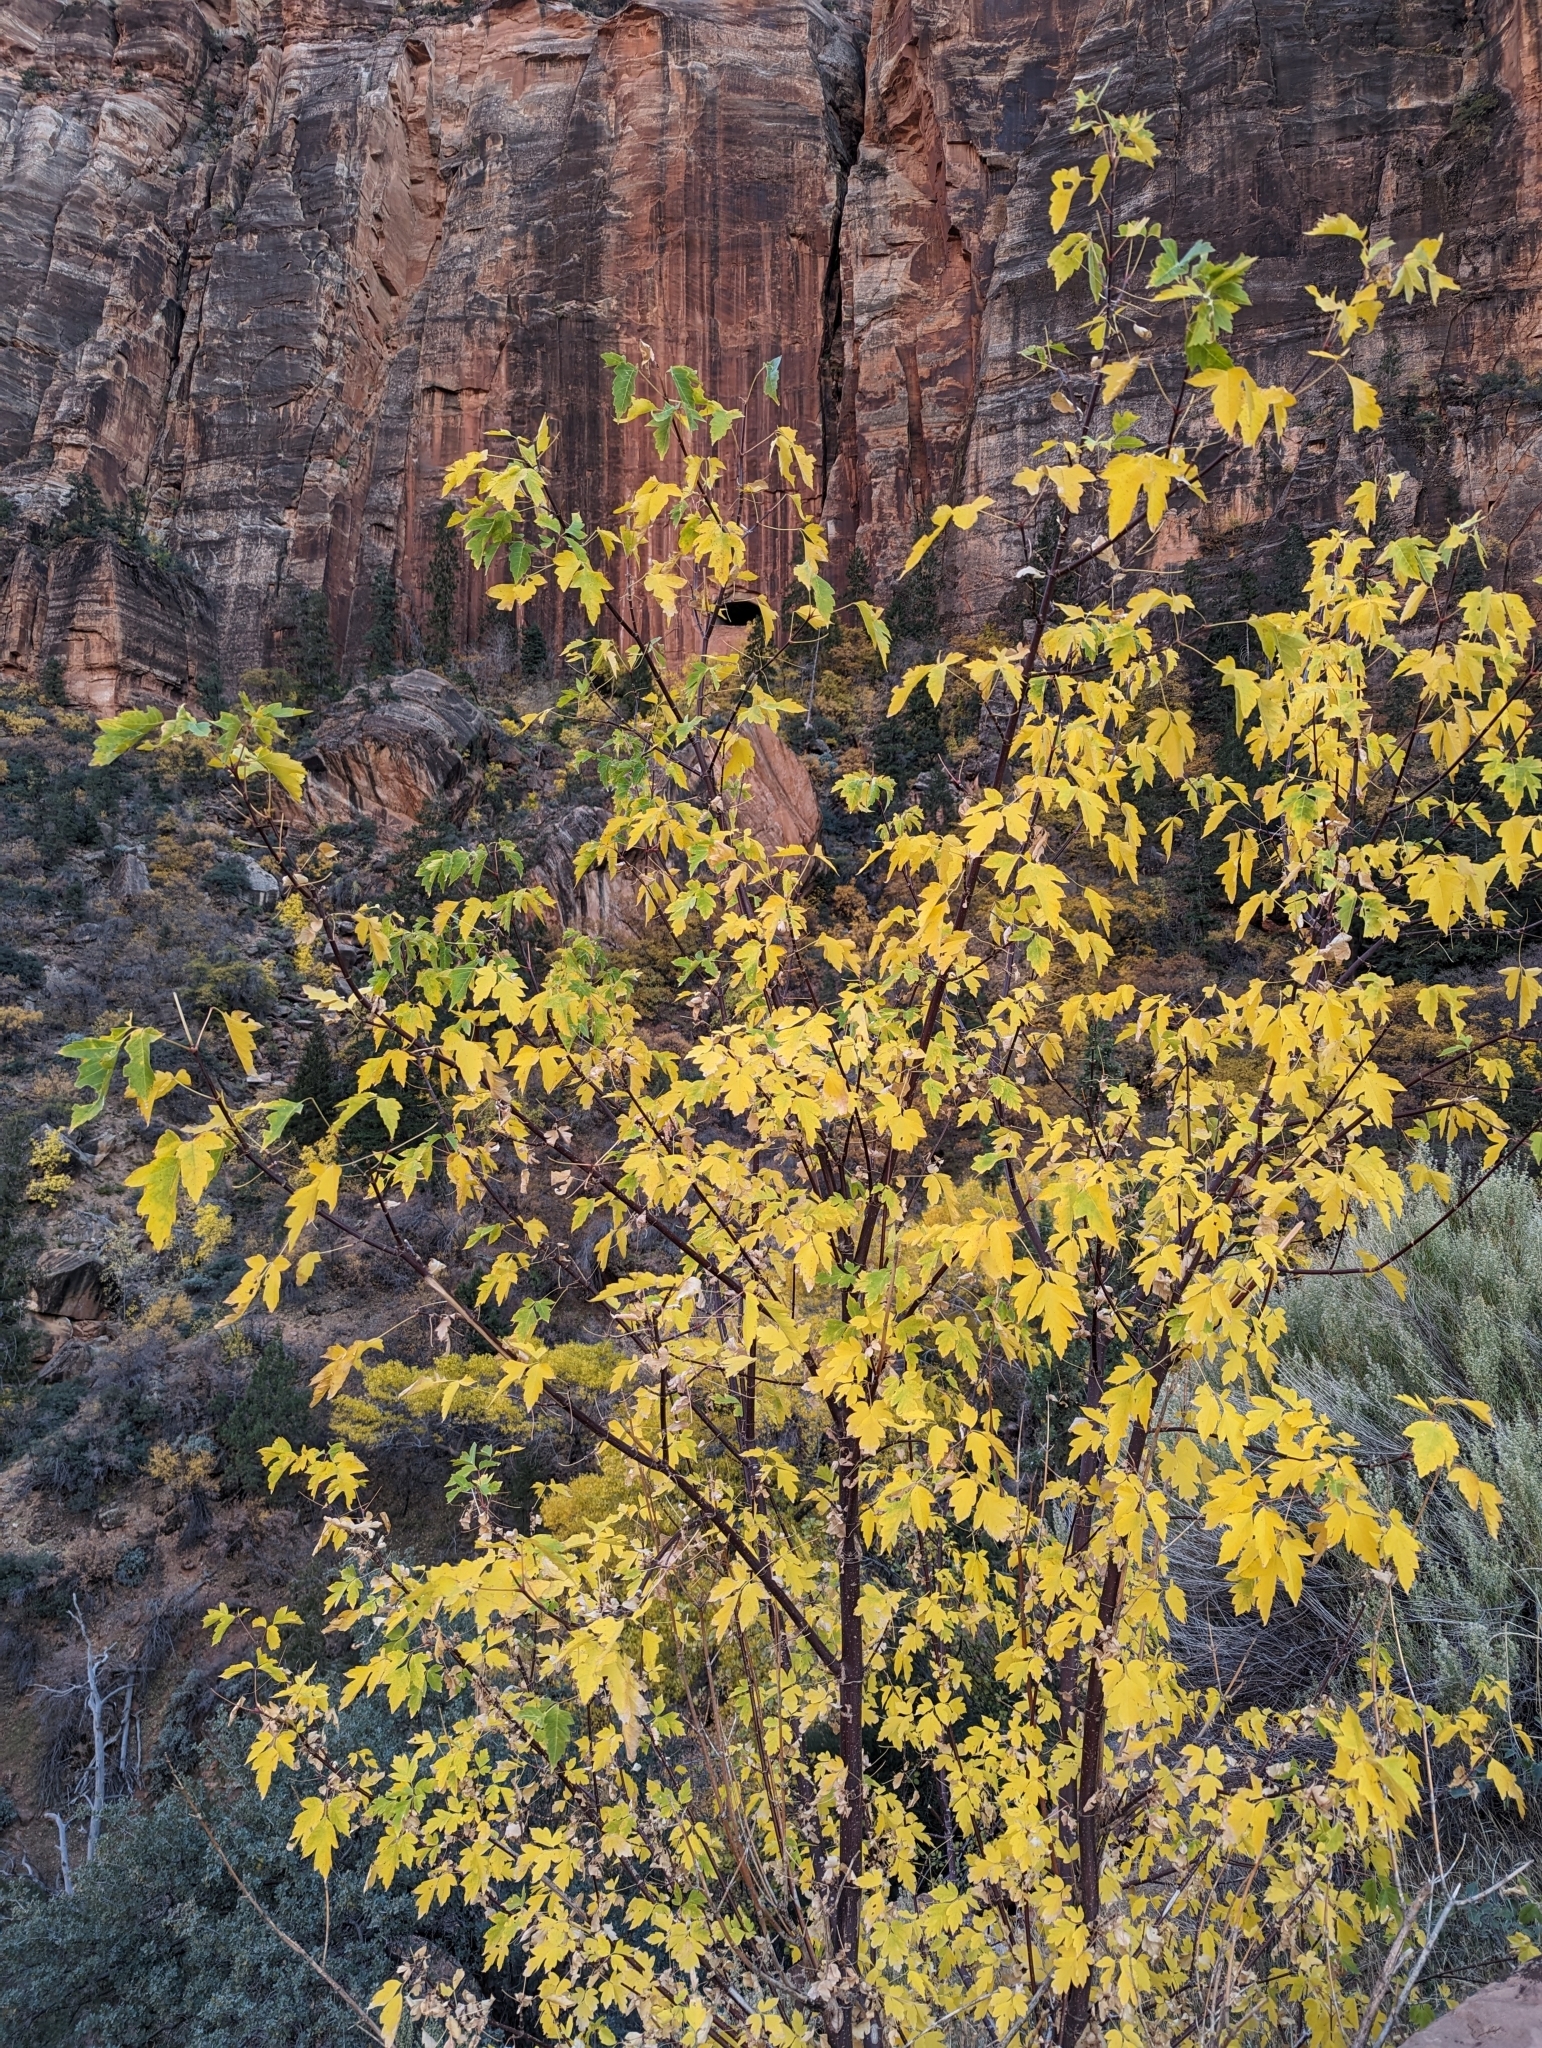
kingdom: Plantae
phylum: Tracheophyta
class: Magnoliopsida
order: Sapindales
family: Sapindaceae
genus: Acer
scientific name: Acer negundo
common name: Ashleaf maple
